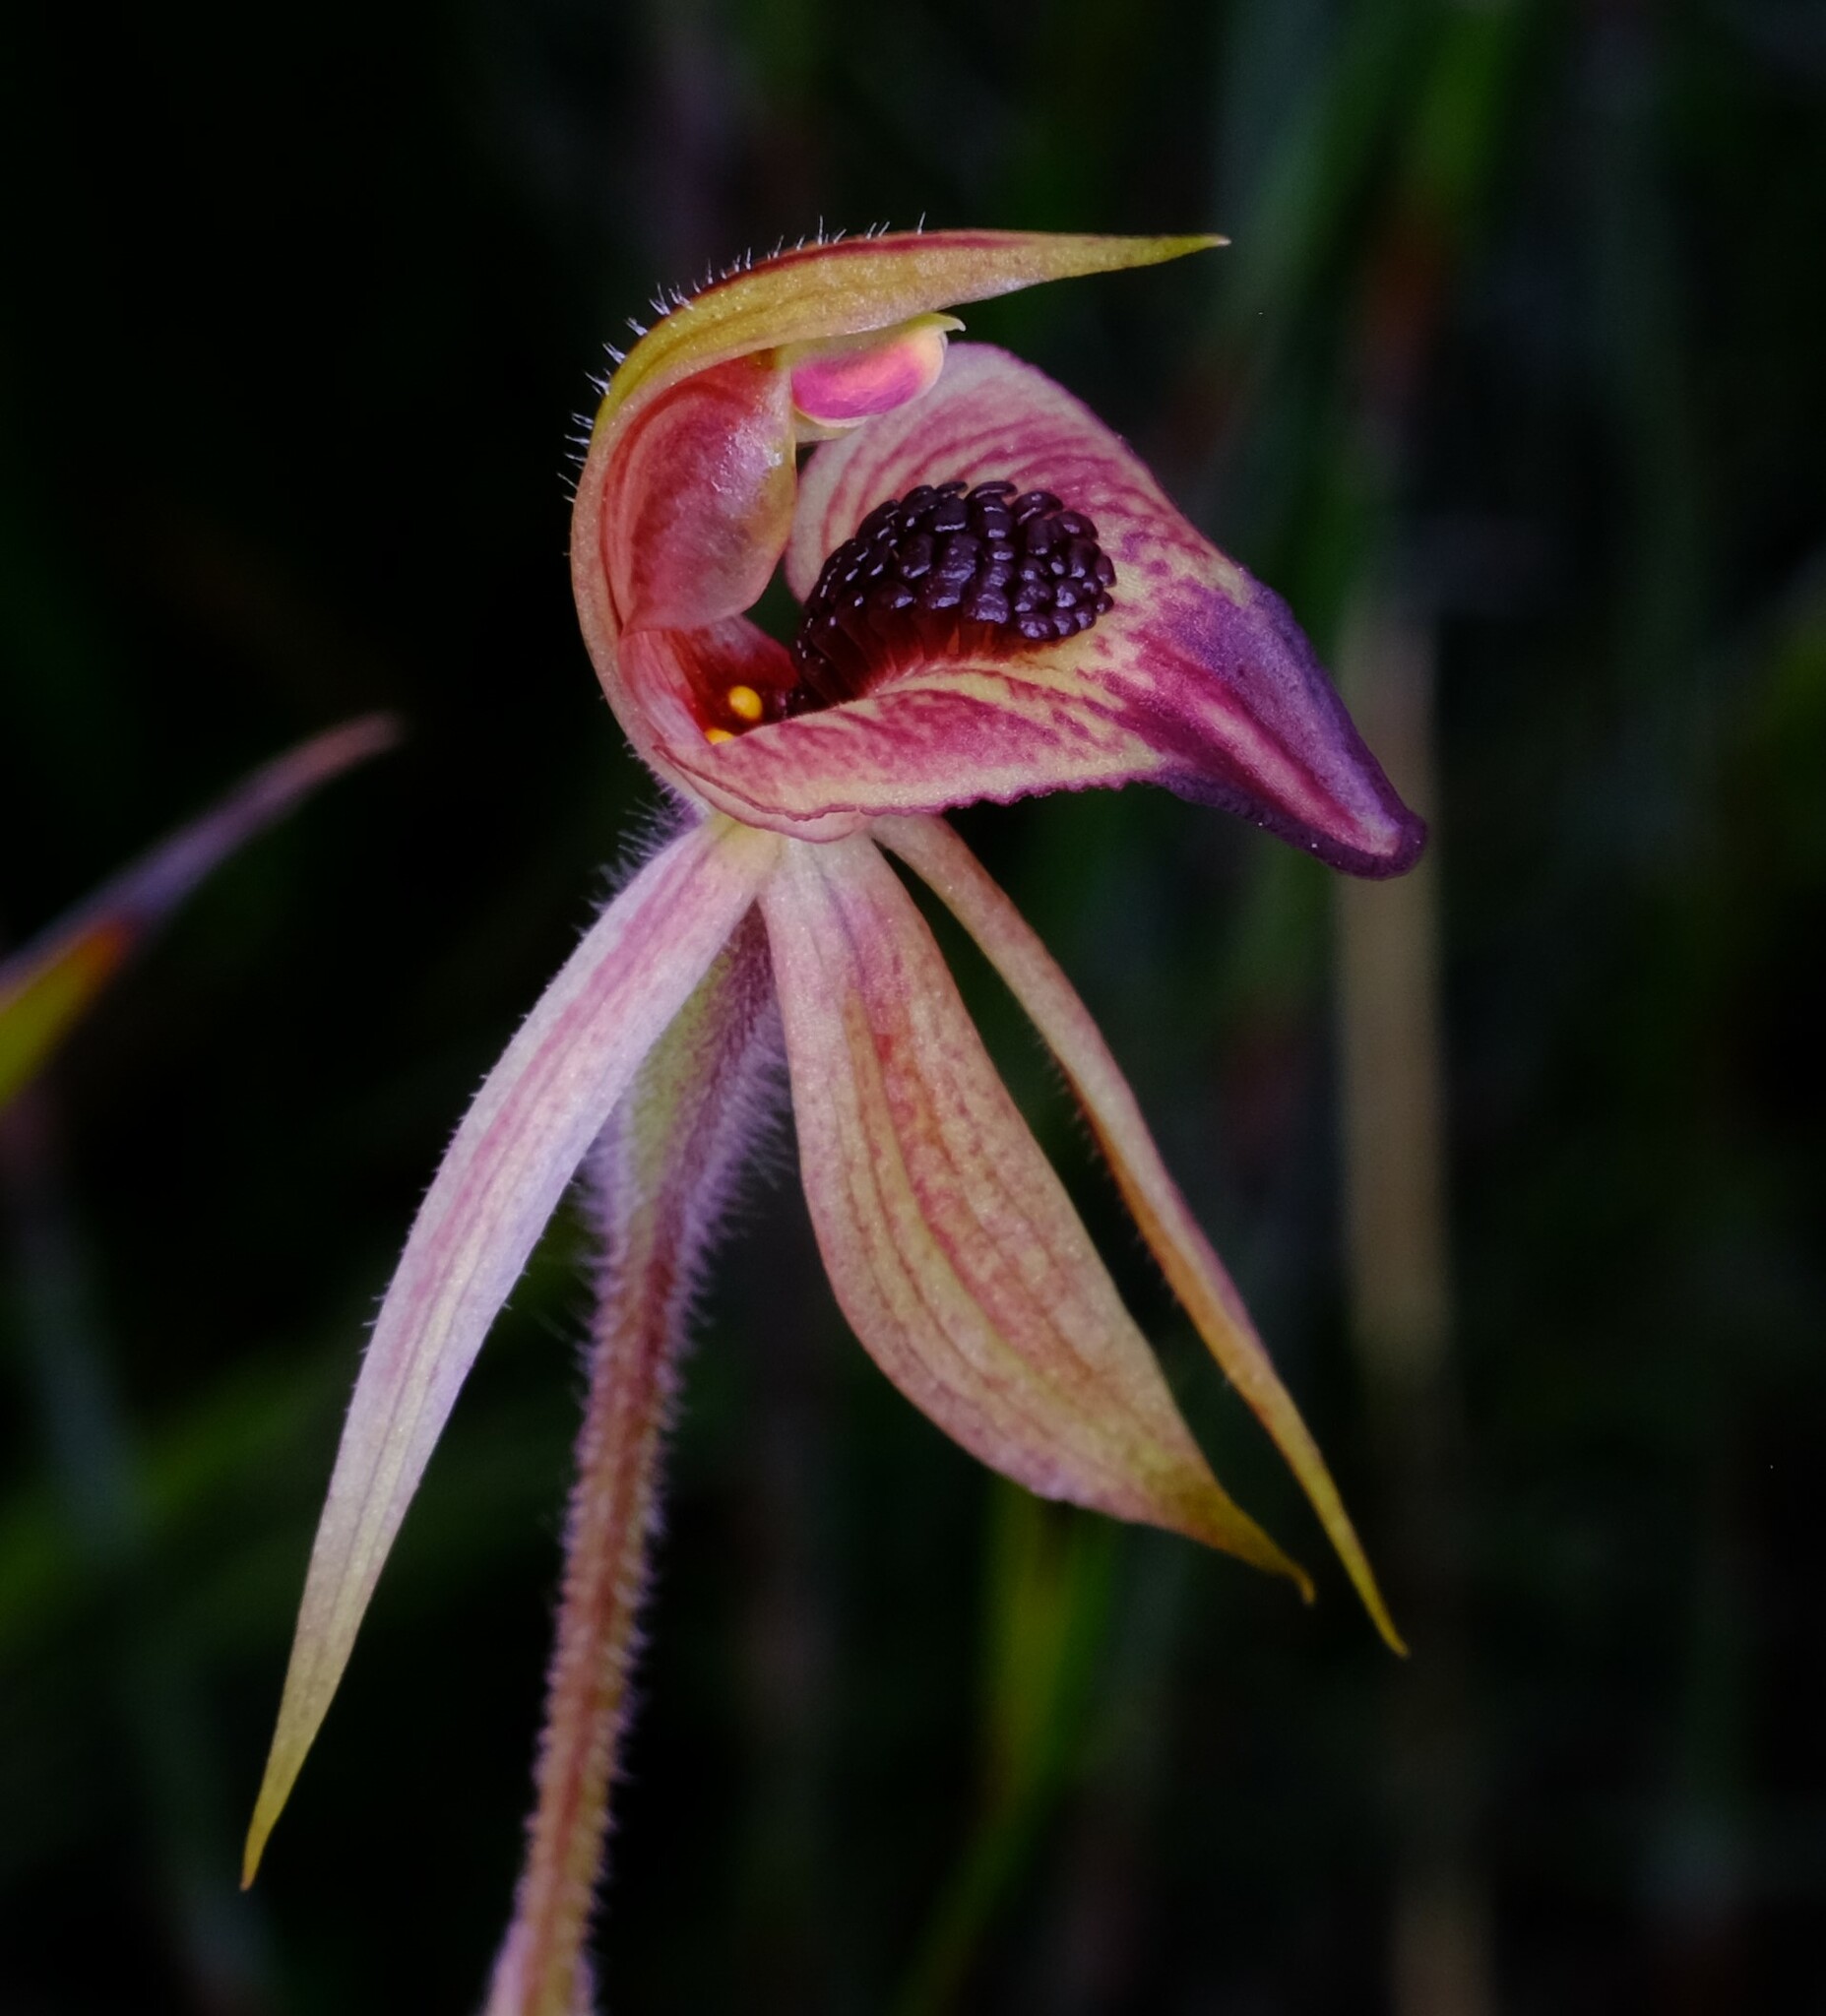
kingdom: Plantae
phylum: Tracheophyta
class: Liliopsida
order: Asparagales
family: Orchidaceae
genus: Caladenia
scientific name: Caladenia tessellata
